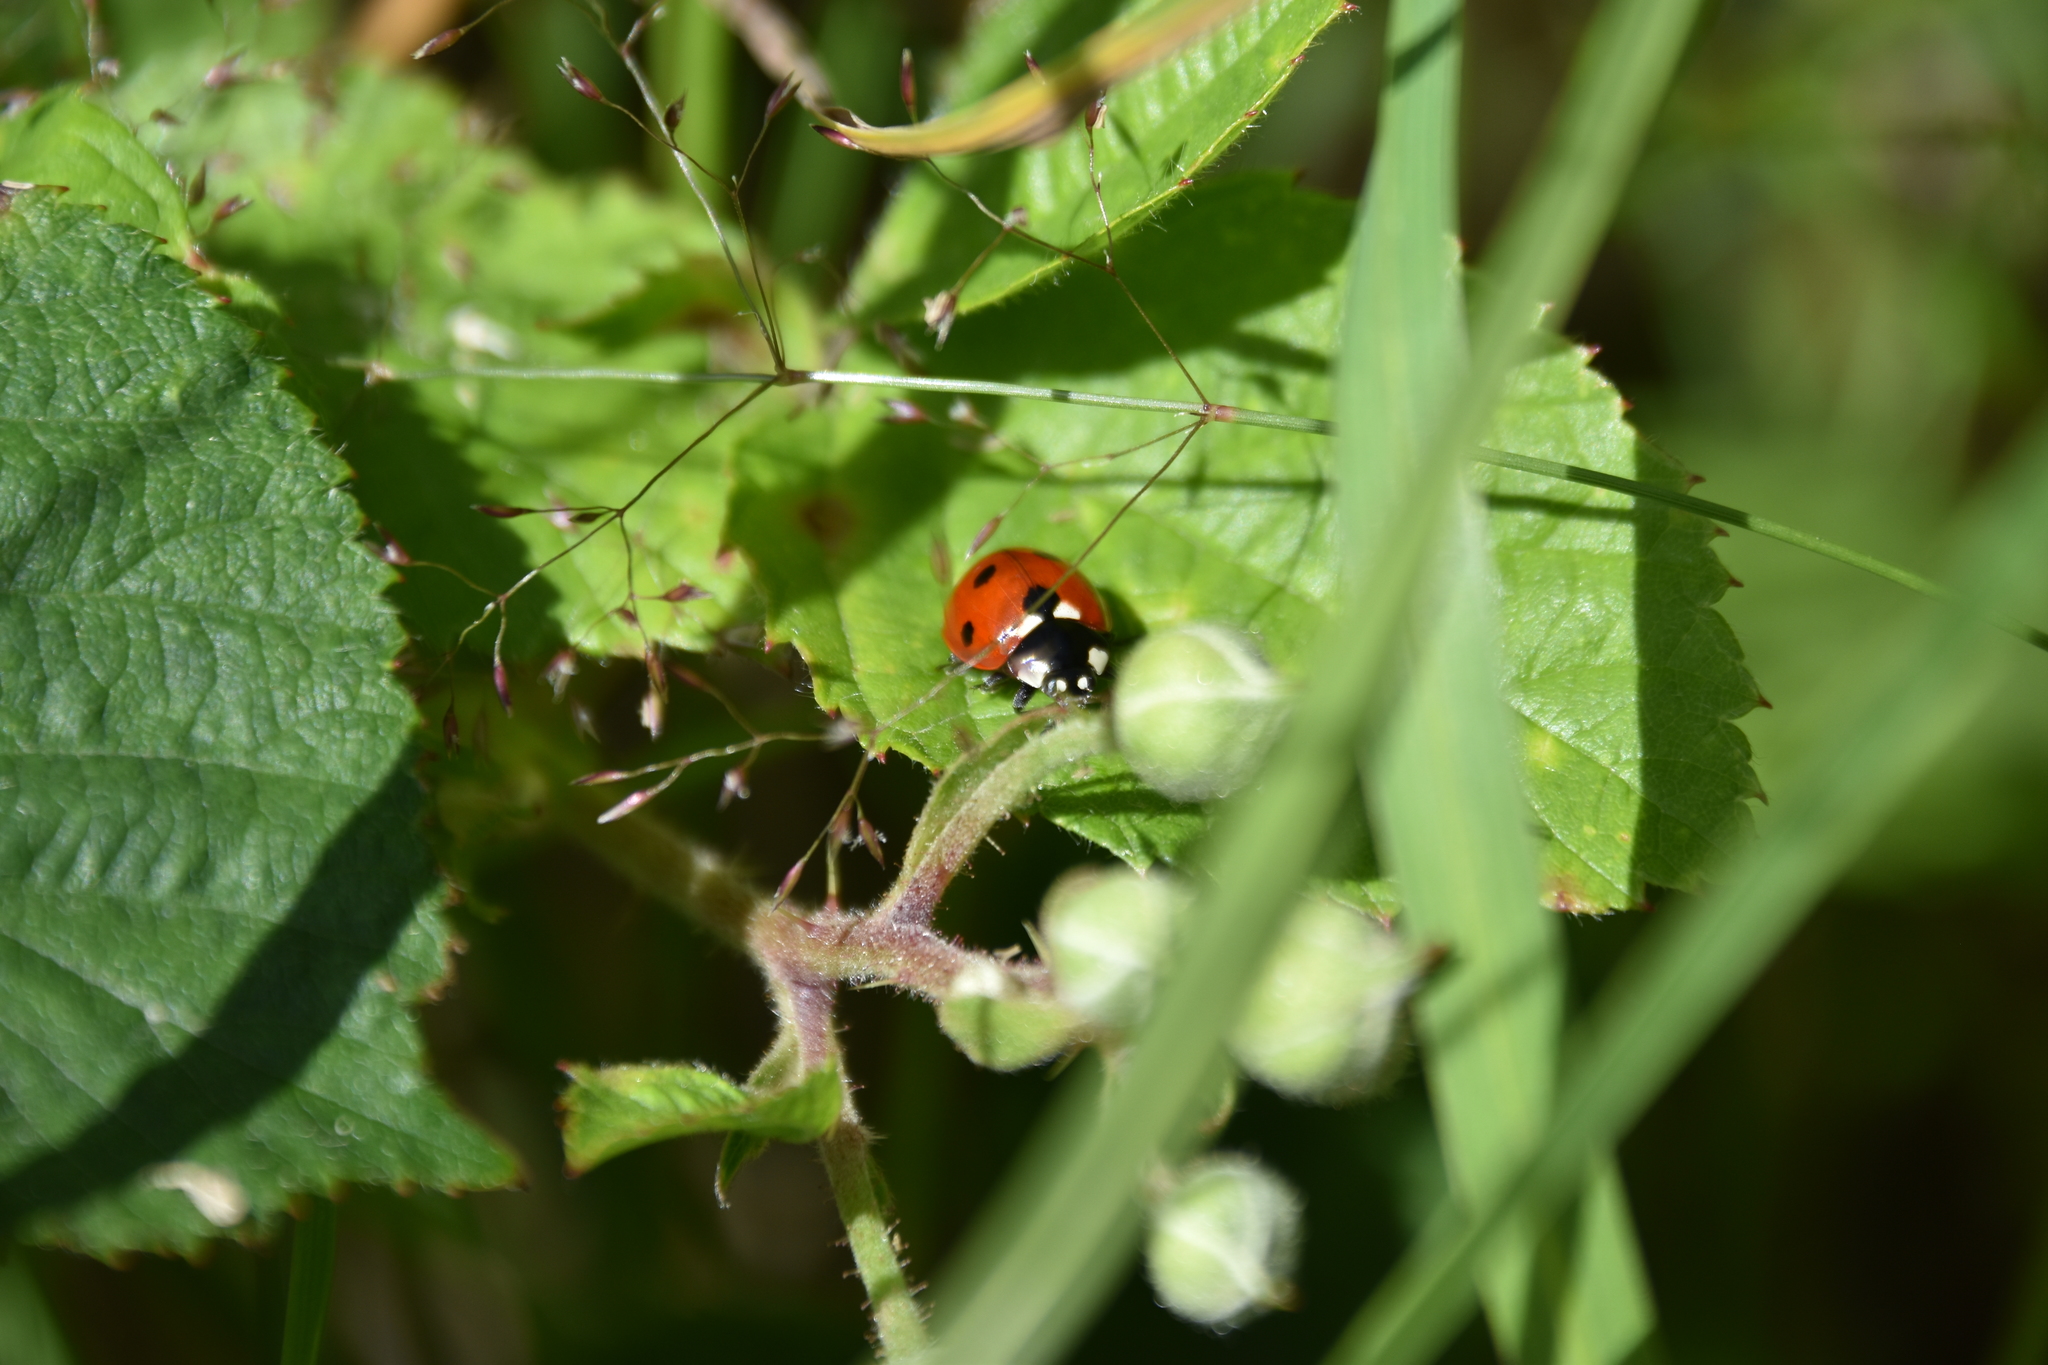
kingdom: Animalia
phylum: Arthropoda
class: Insecta
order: Coleoptera
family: Coccinellidae
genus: Coccinella
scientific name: Coccinella septempunctata
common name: Sevenspotted lady beetle
